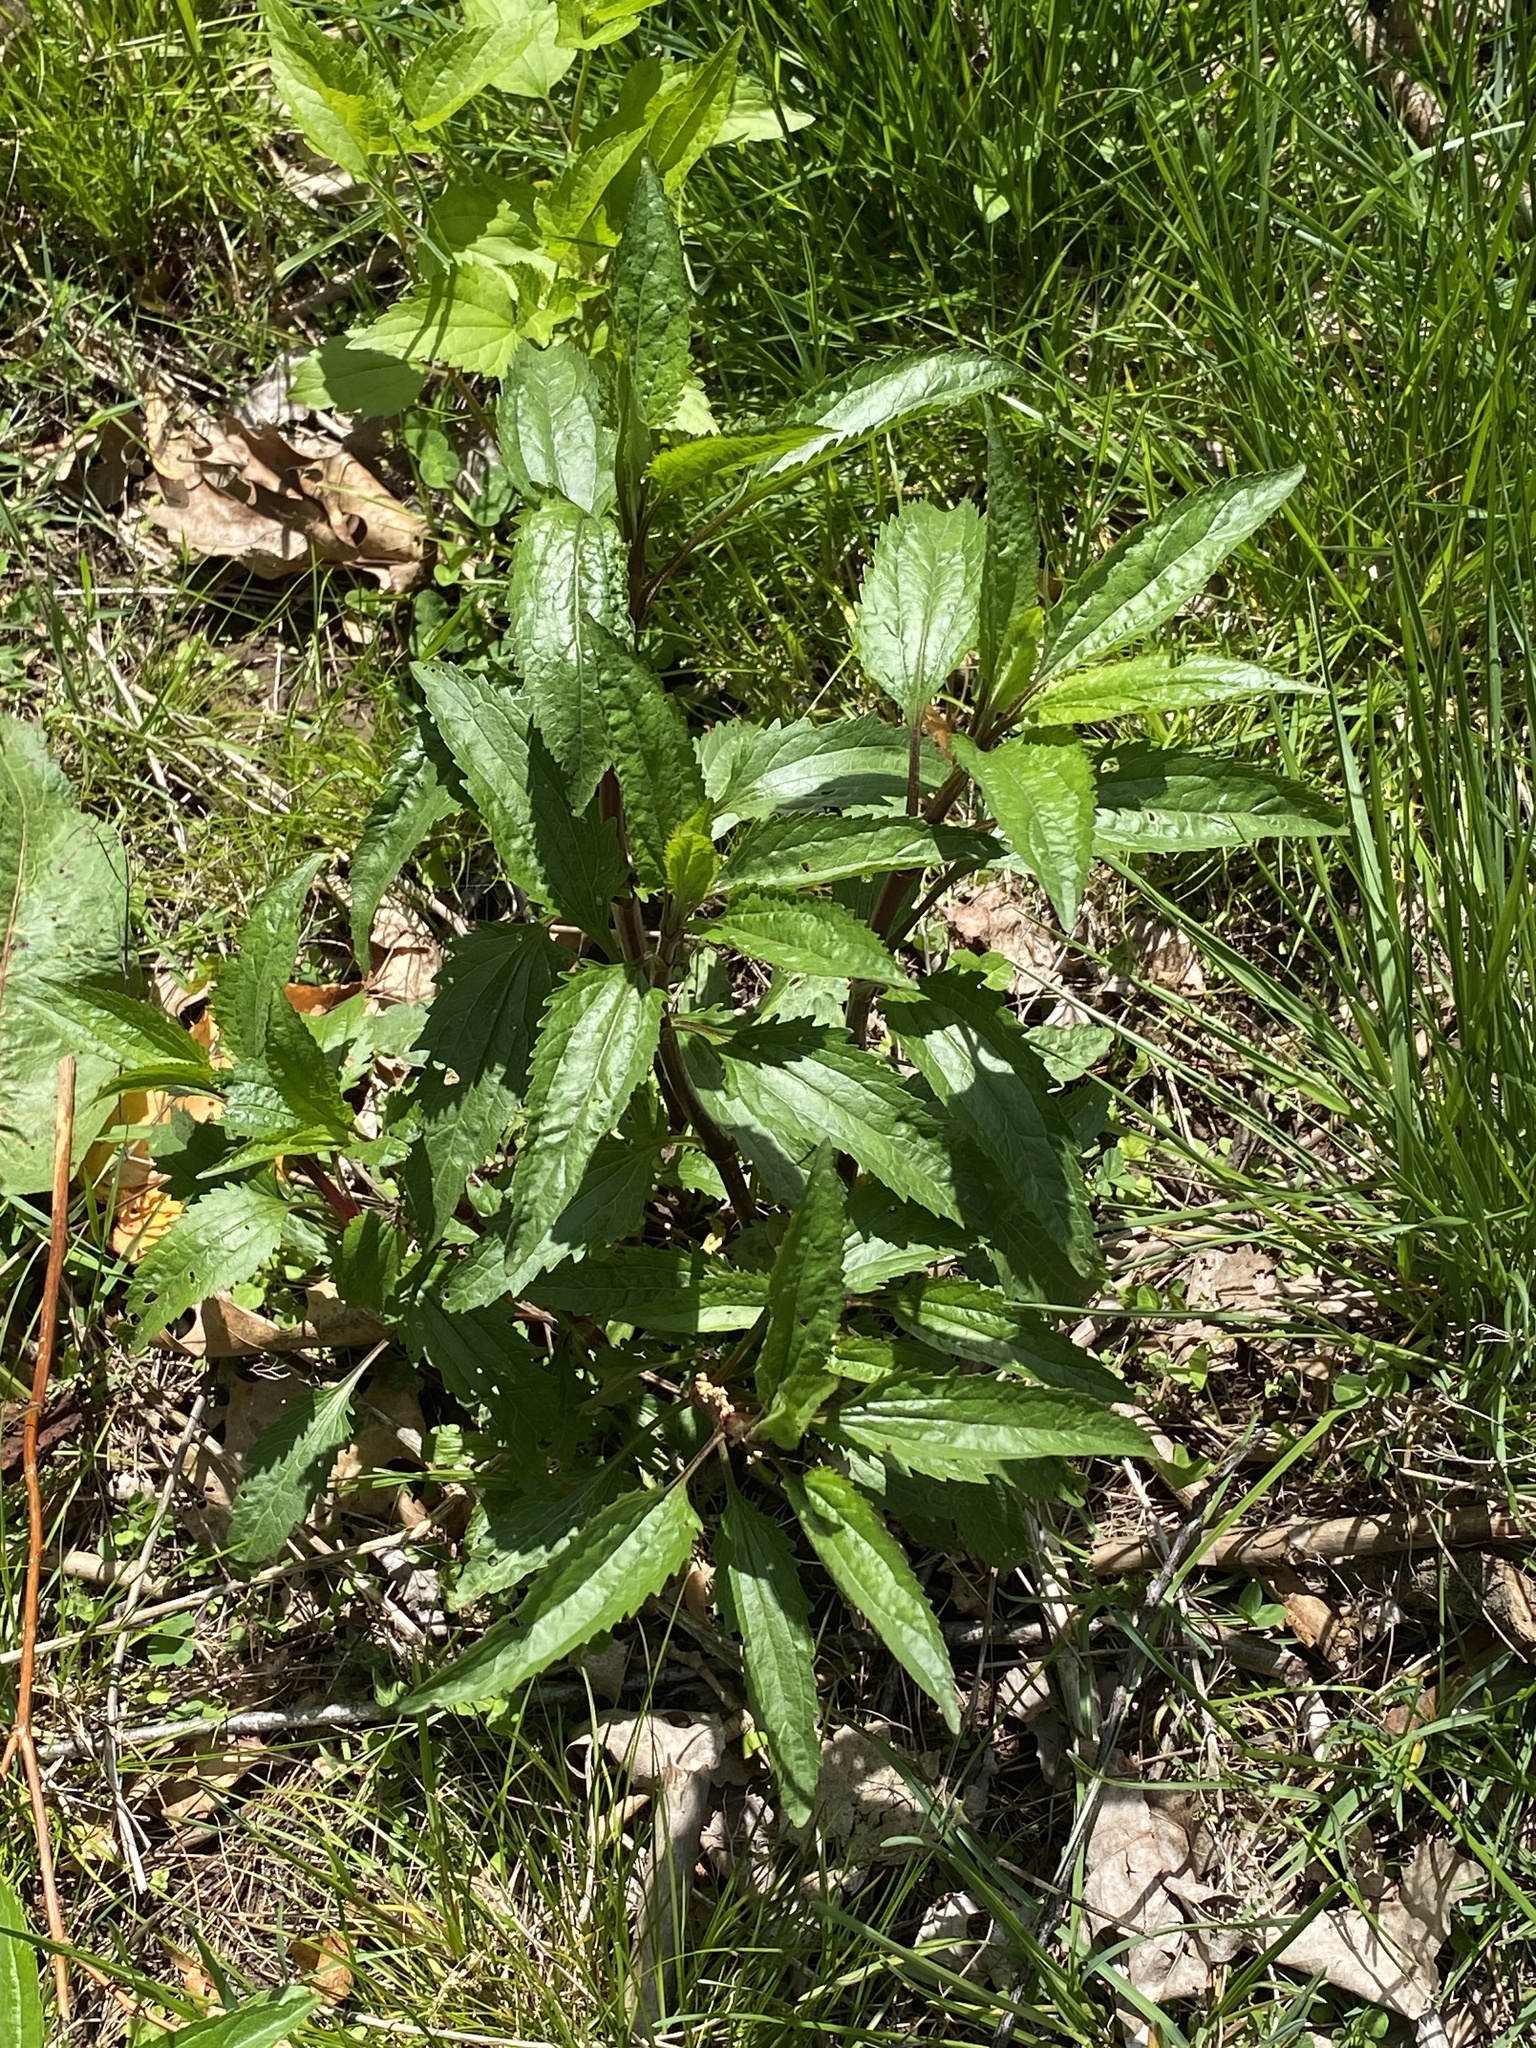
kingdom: Plantae
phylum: Tracheophyta
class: Magnoliopsida
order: Asterales
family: Asteraceae
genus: Eupatorium
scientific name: Eupatorium serotinum
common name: Late boneset
